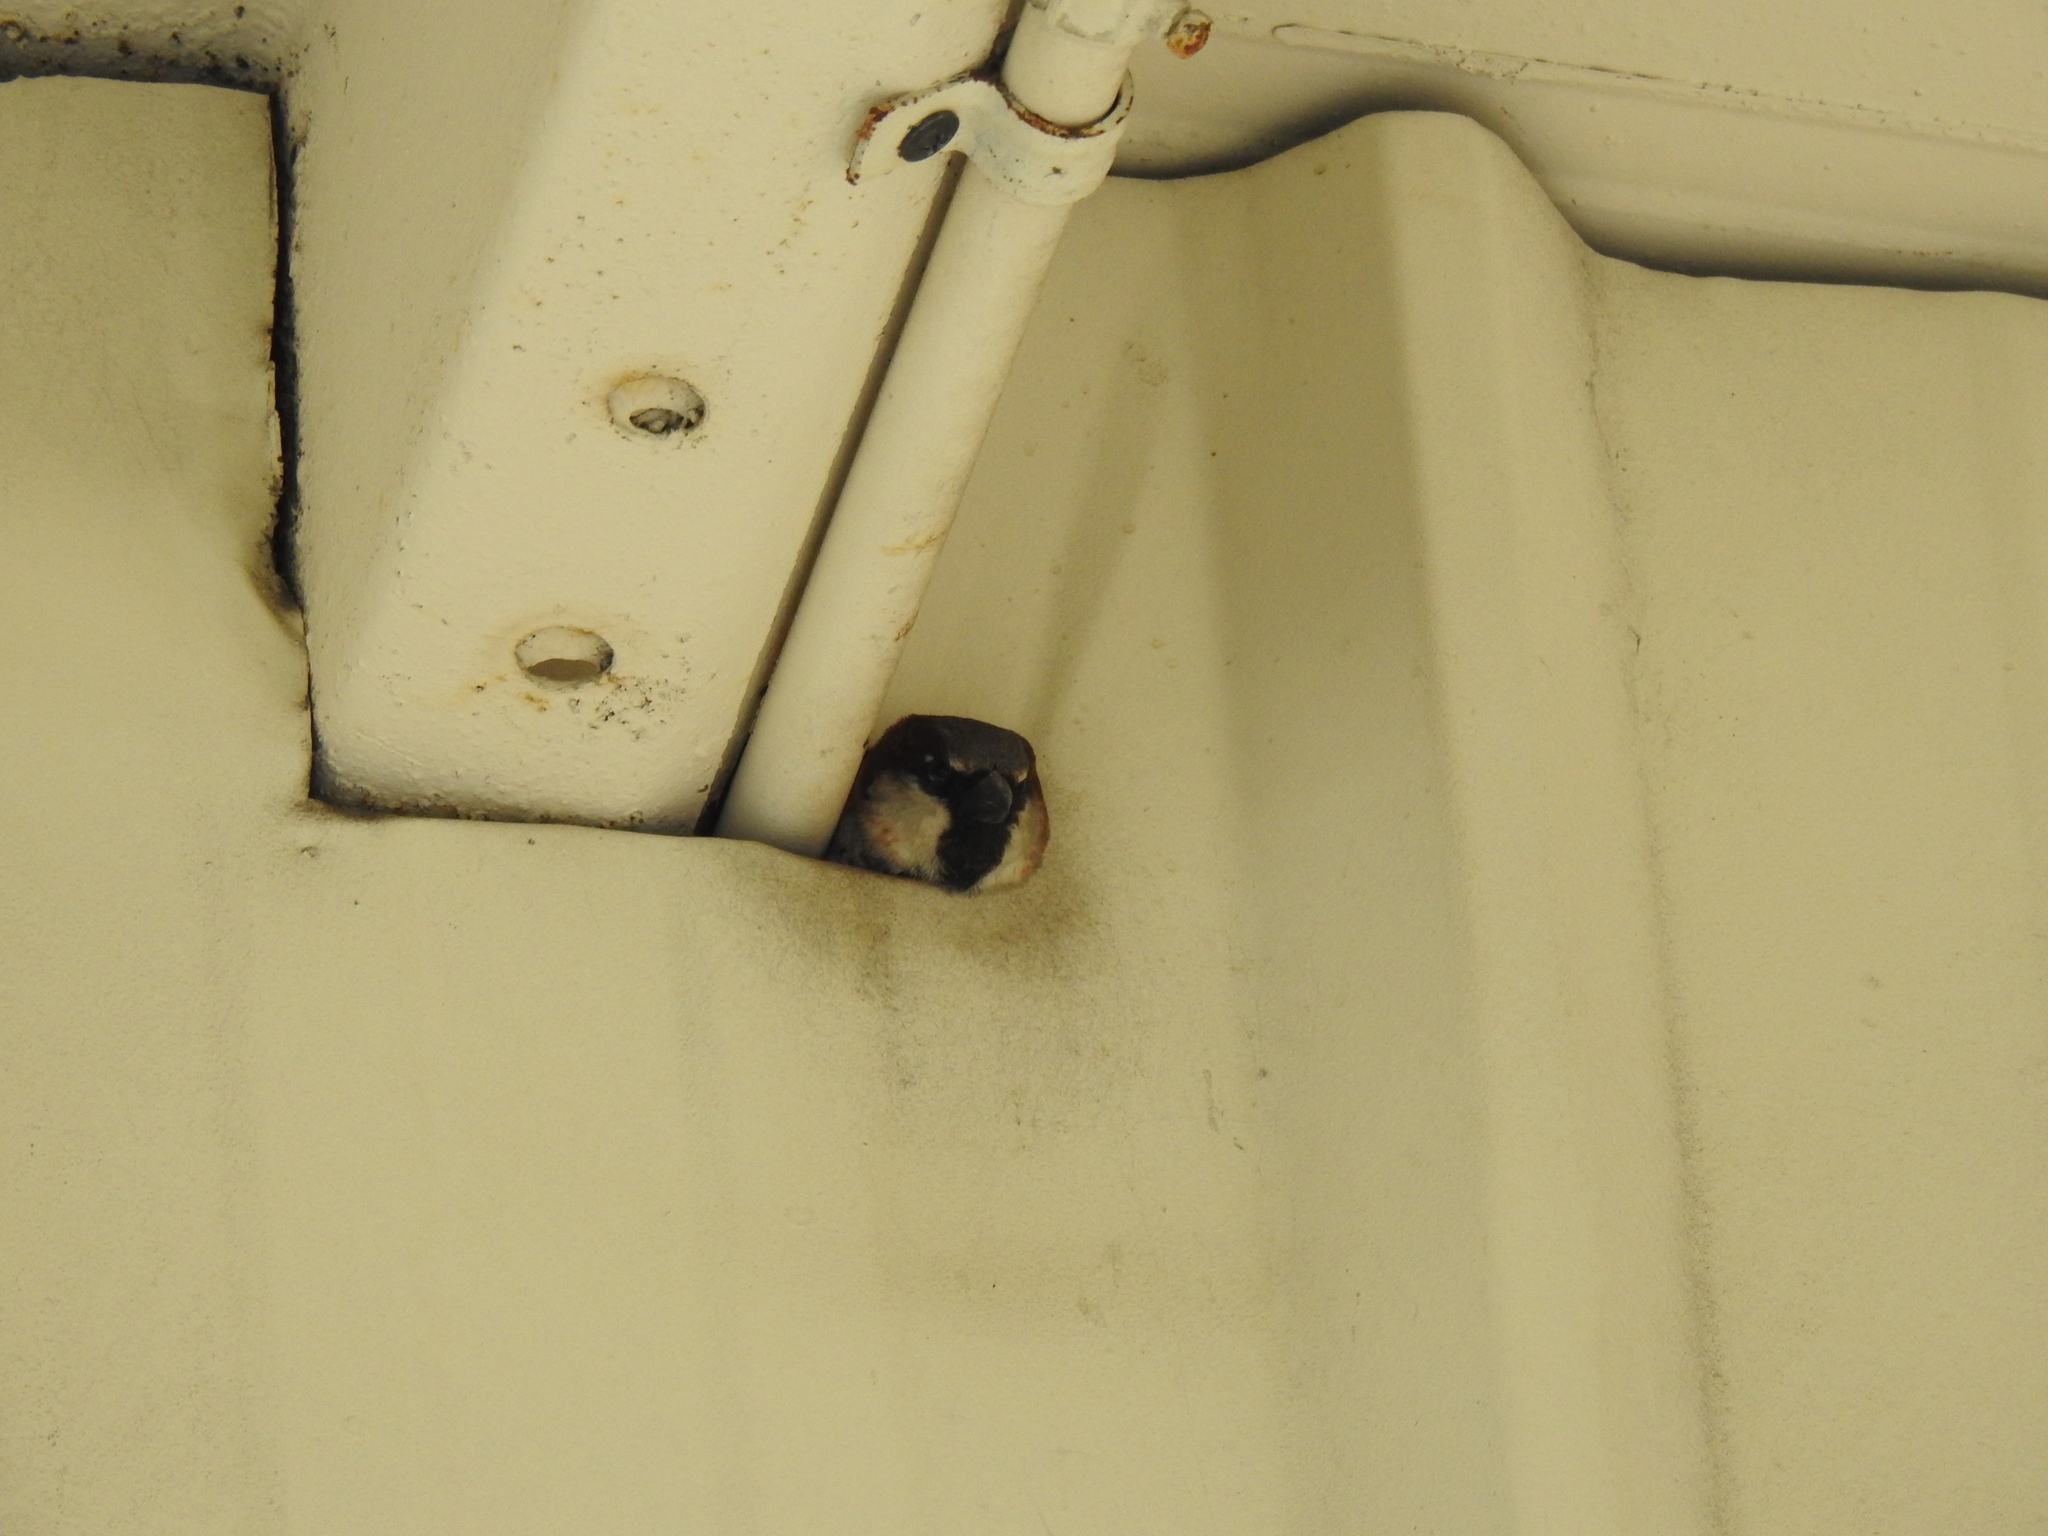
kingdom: Animalia
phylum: Chordata
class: Aves
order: Passeriformes
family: Passeridae
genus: Passer
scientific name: Passer domesticus
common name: House sparrow
